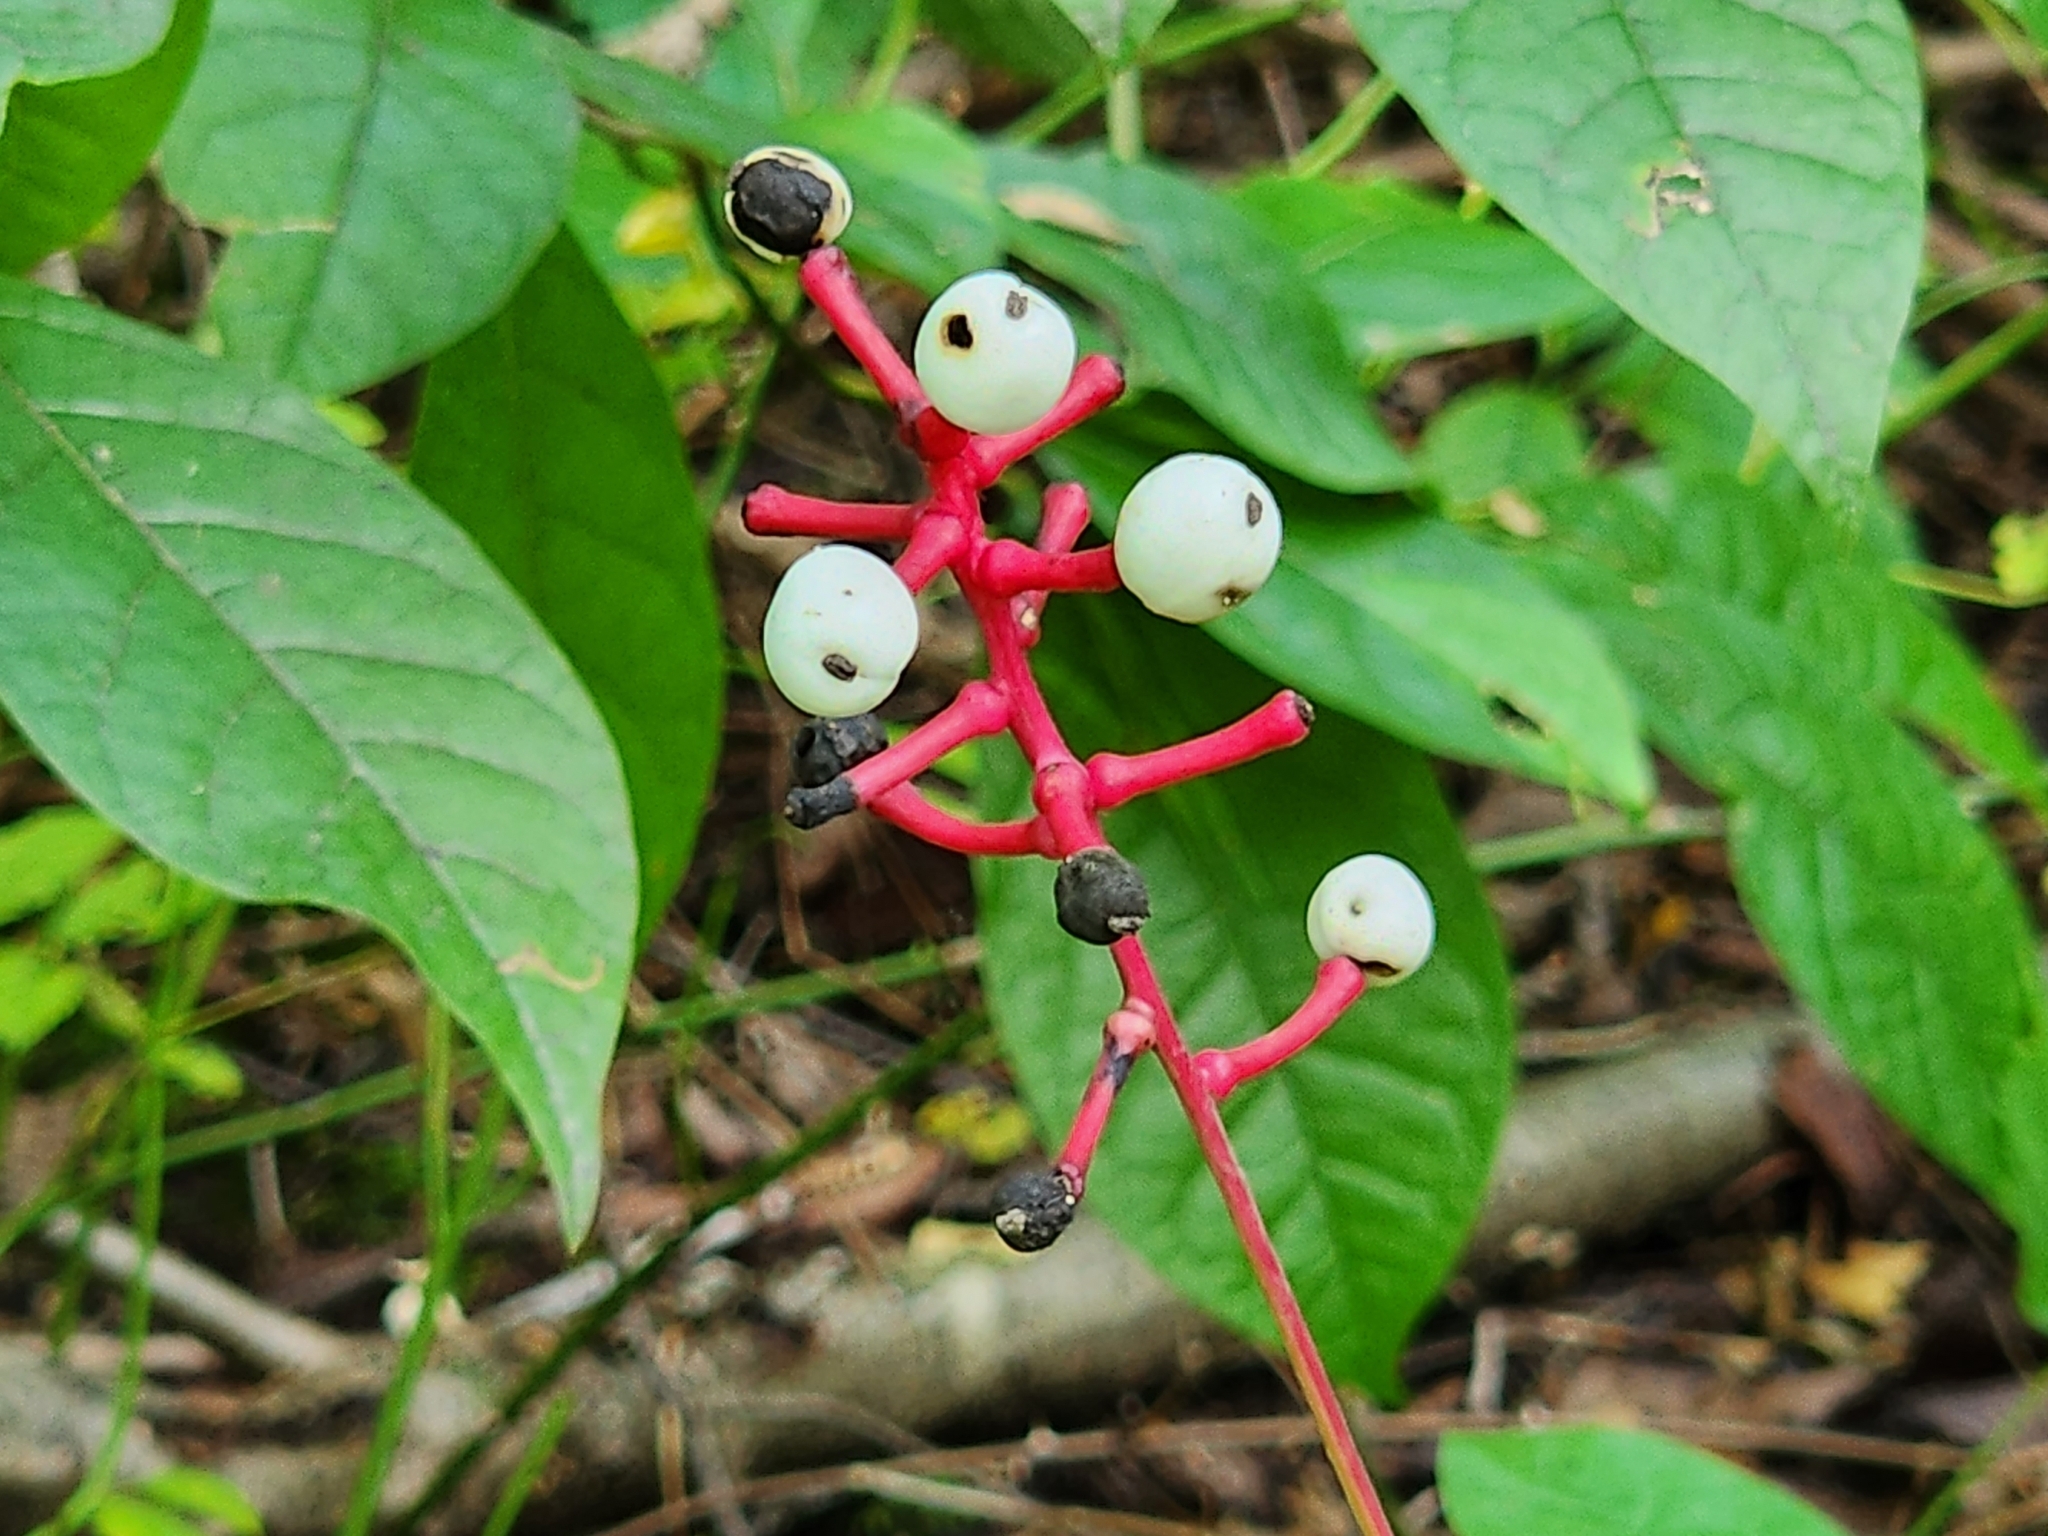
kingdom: Plantae
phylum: Tracheophyta
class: Magnoliopsida
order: Ranunculales
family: Ranunculaceae
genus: Actaea
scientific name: Actaea pachypoda
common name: Doll's-eyes
